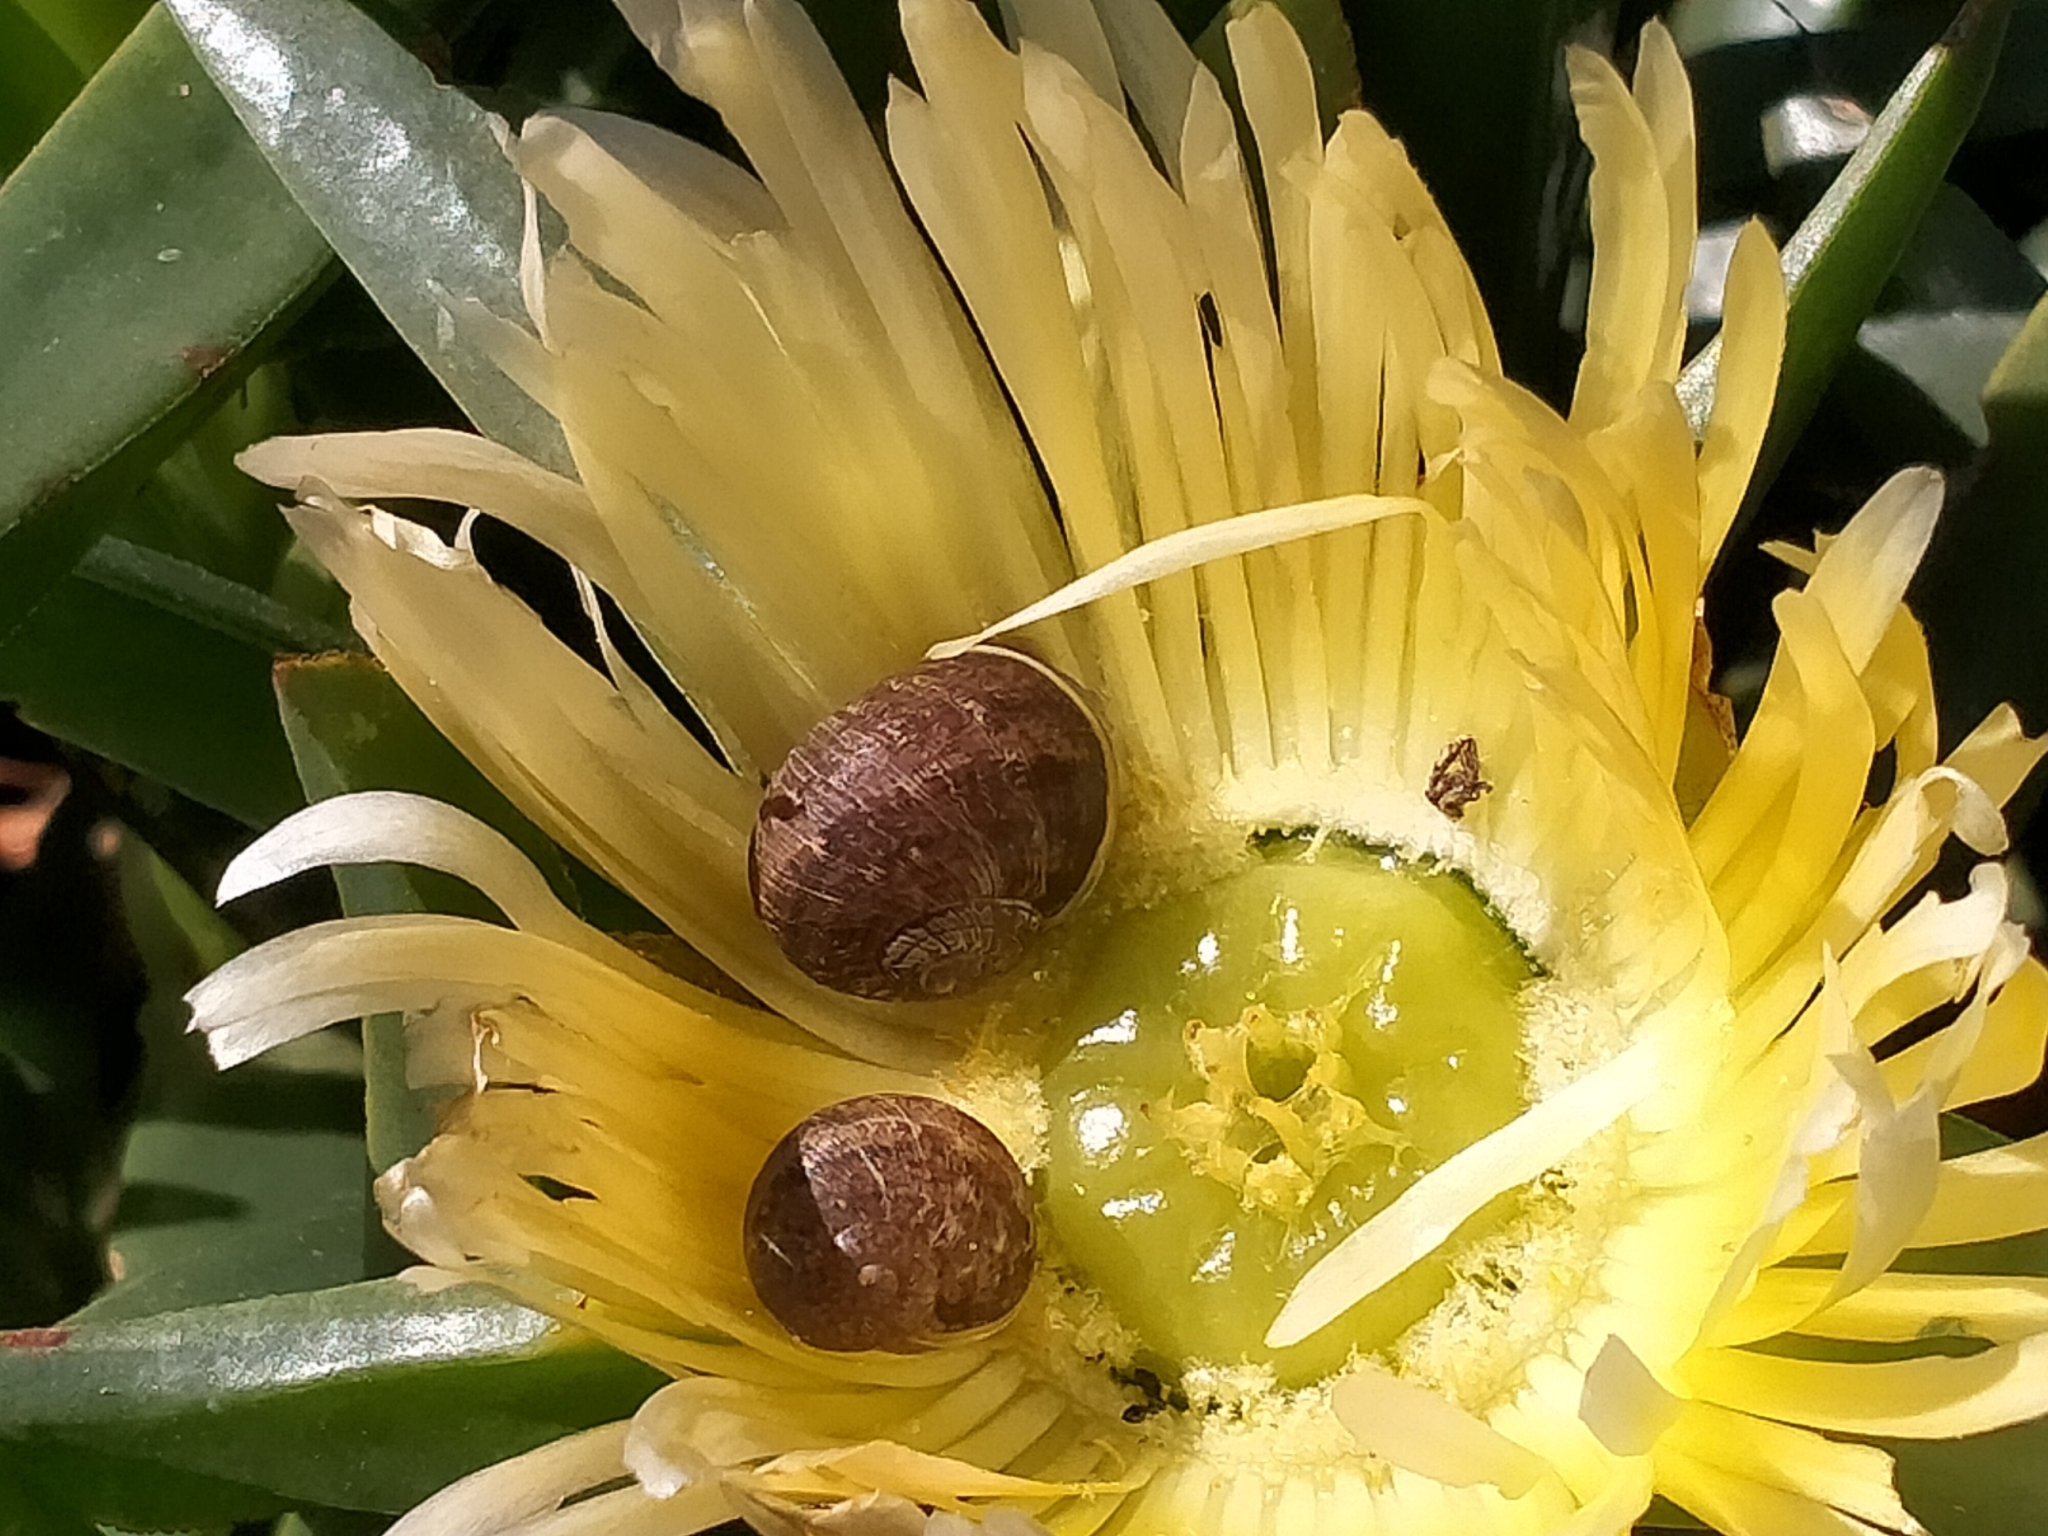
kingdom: Animalia
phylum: Mollusca
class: Gastropoda
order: Stylommatophora
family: Helicidae
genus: Cornu
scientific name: Cornu aspersum
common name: Brown garden snail
